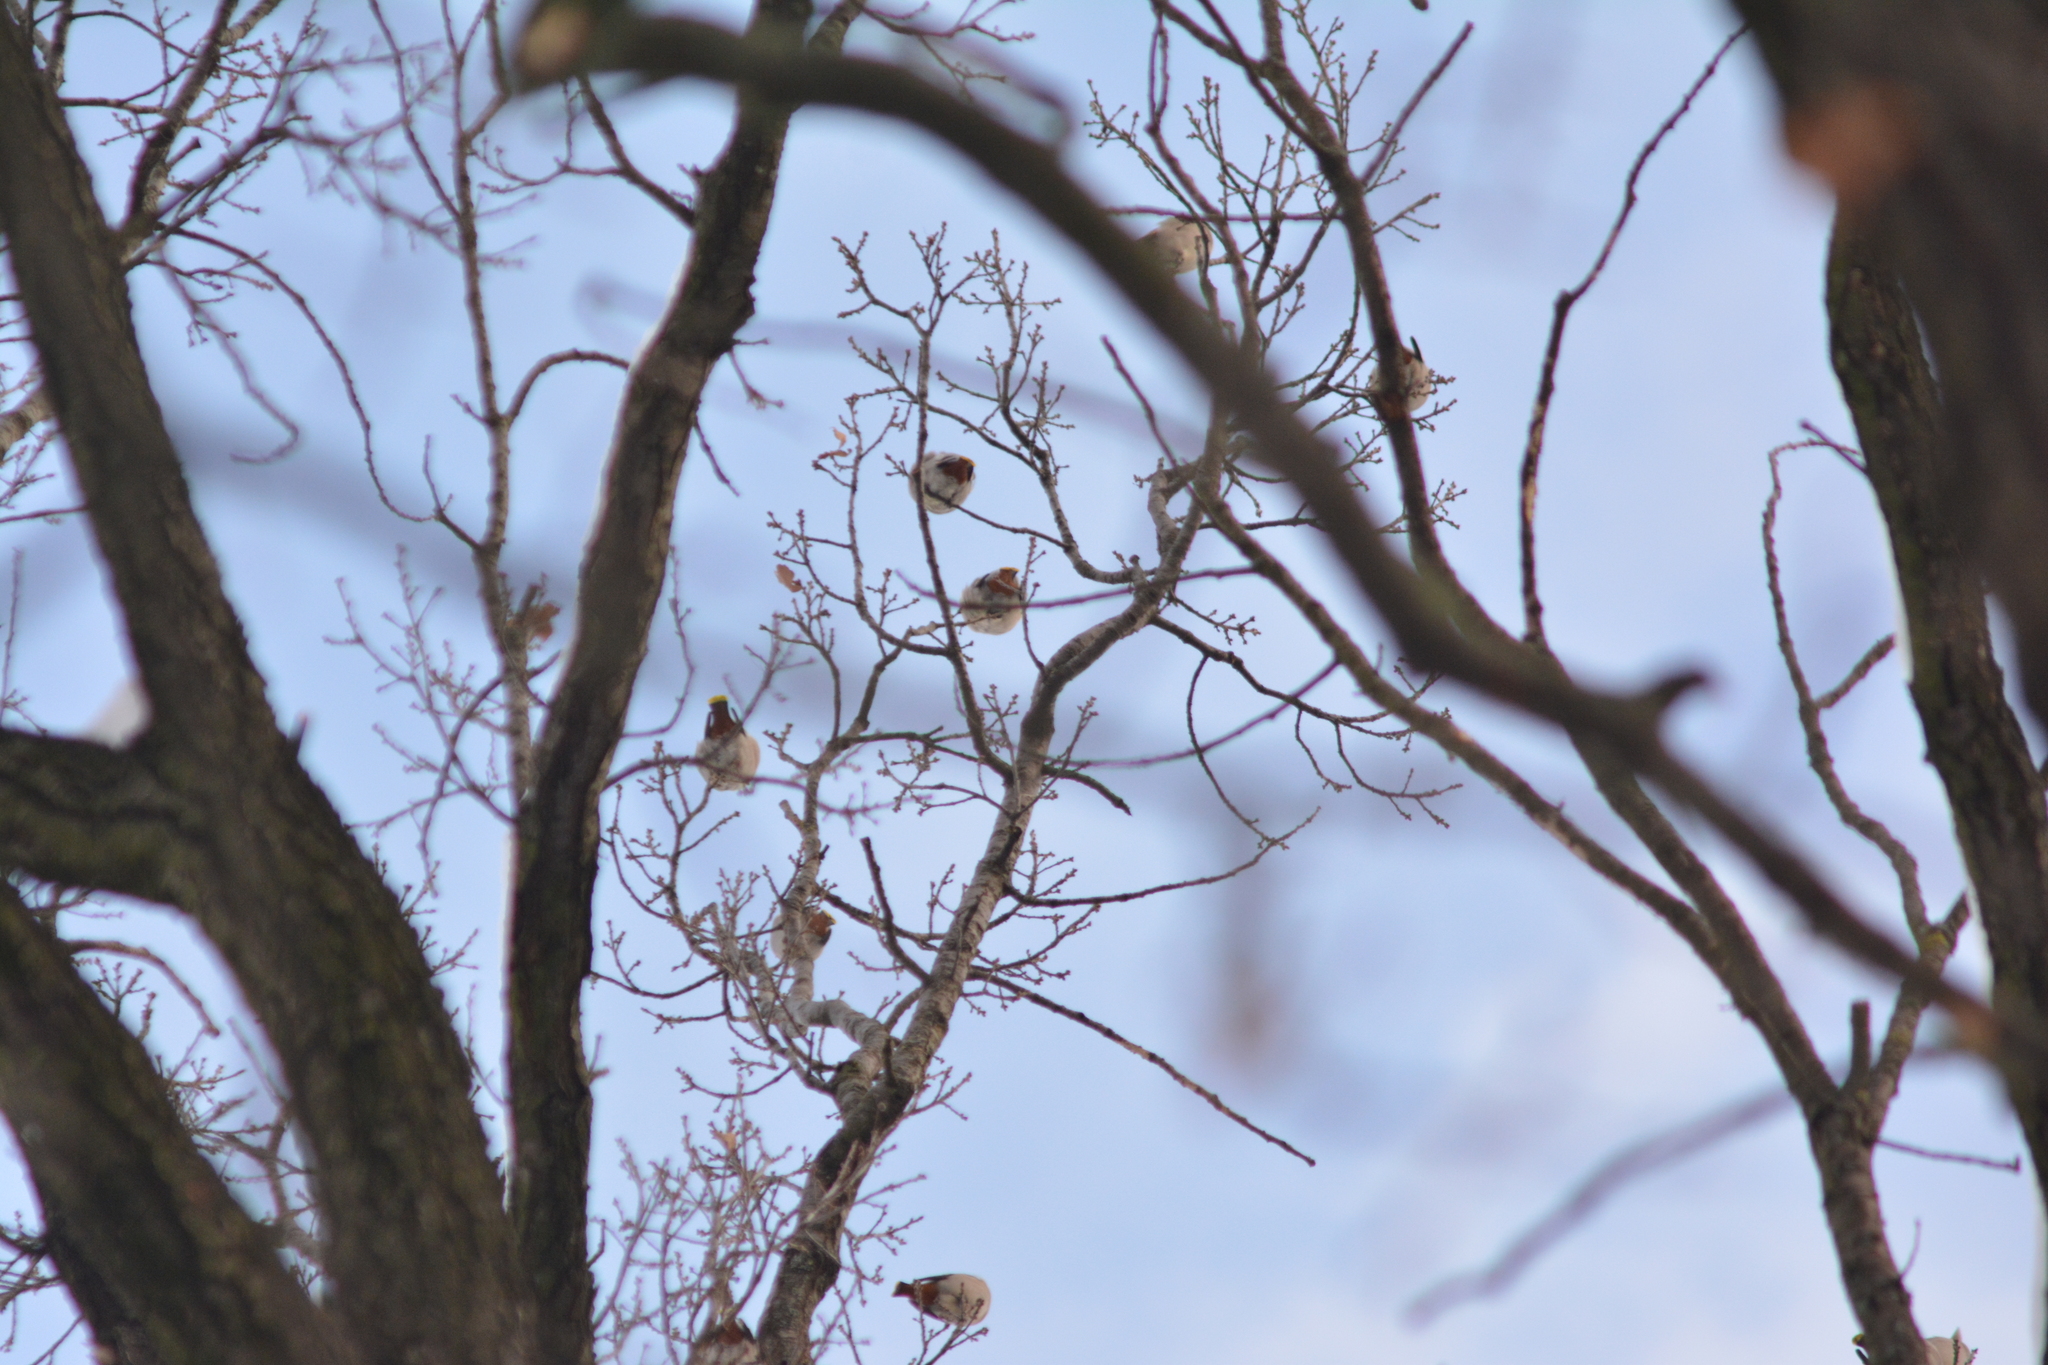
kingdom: Animalia
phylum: Chordata
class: Aves
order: Passeriformes
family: Bombycillidae
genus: Bombycilla
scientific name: Bombycilla garrulus
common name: Bohemian waxwing
